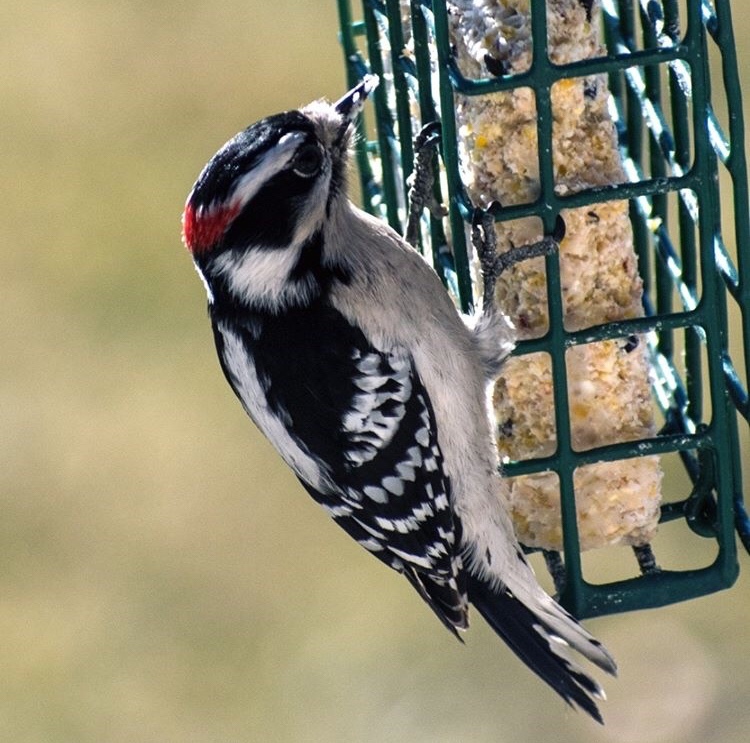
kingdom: Animalia
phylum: Chordata
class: Aves
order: Piciformes
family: Picidae
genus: Dryobates
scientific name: Dryobates pubescens
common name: Downy woodpecker
